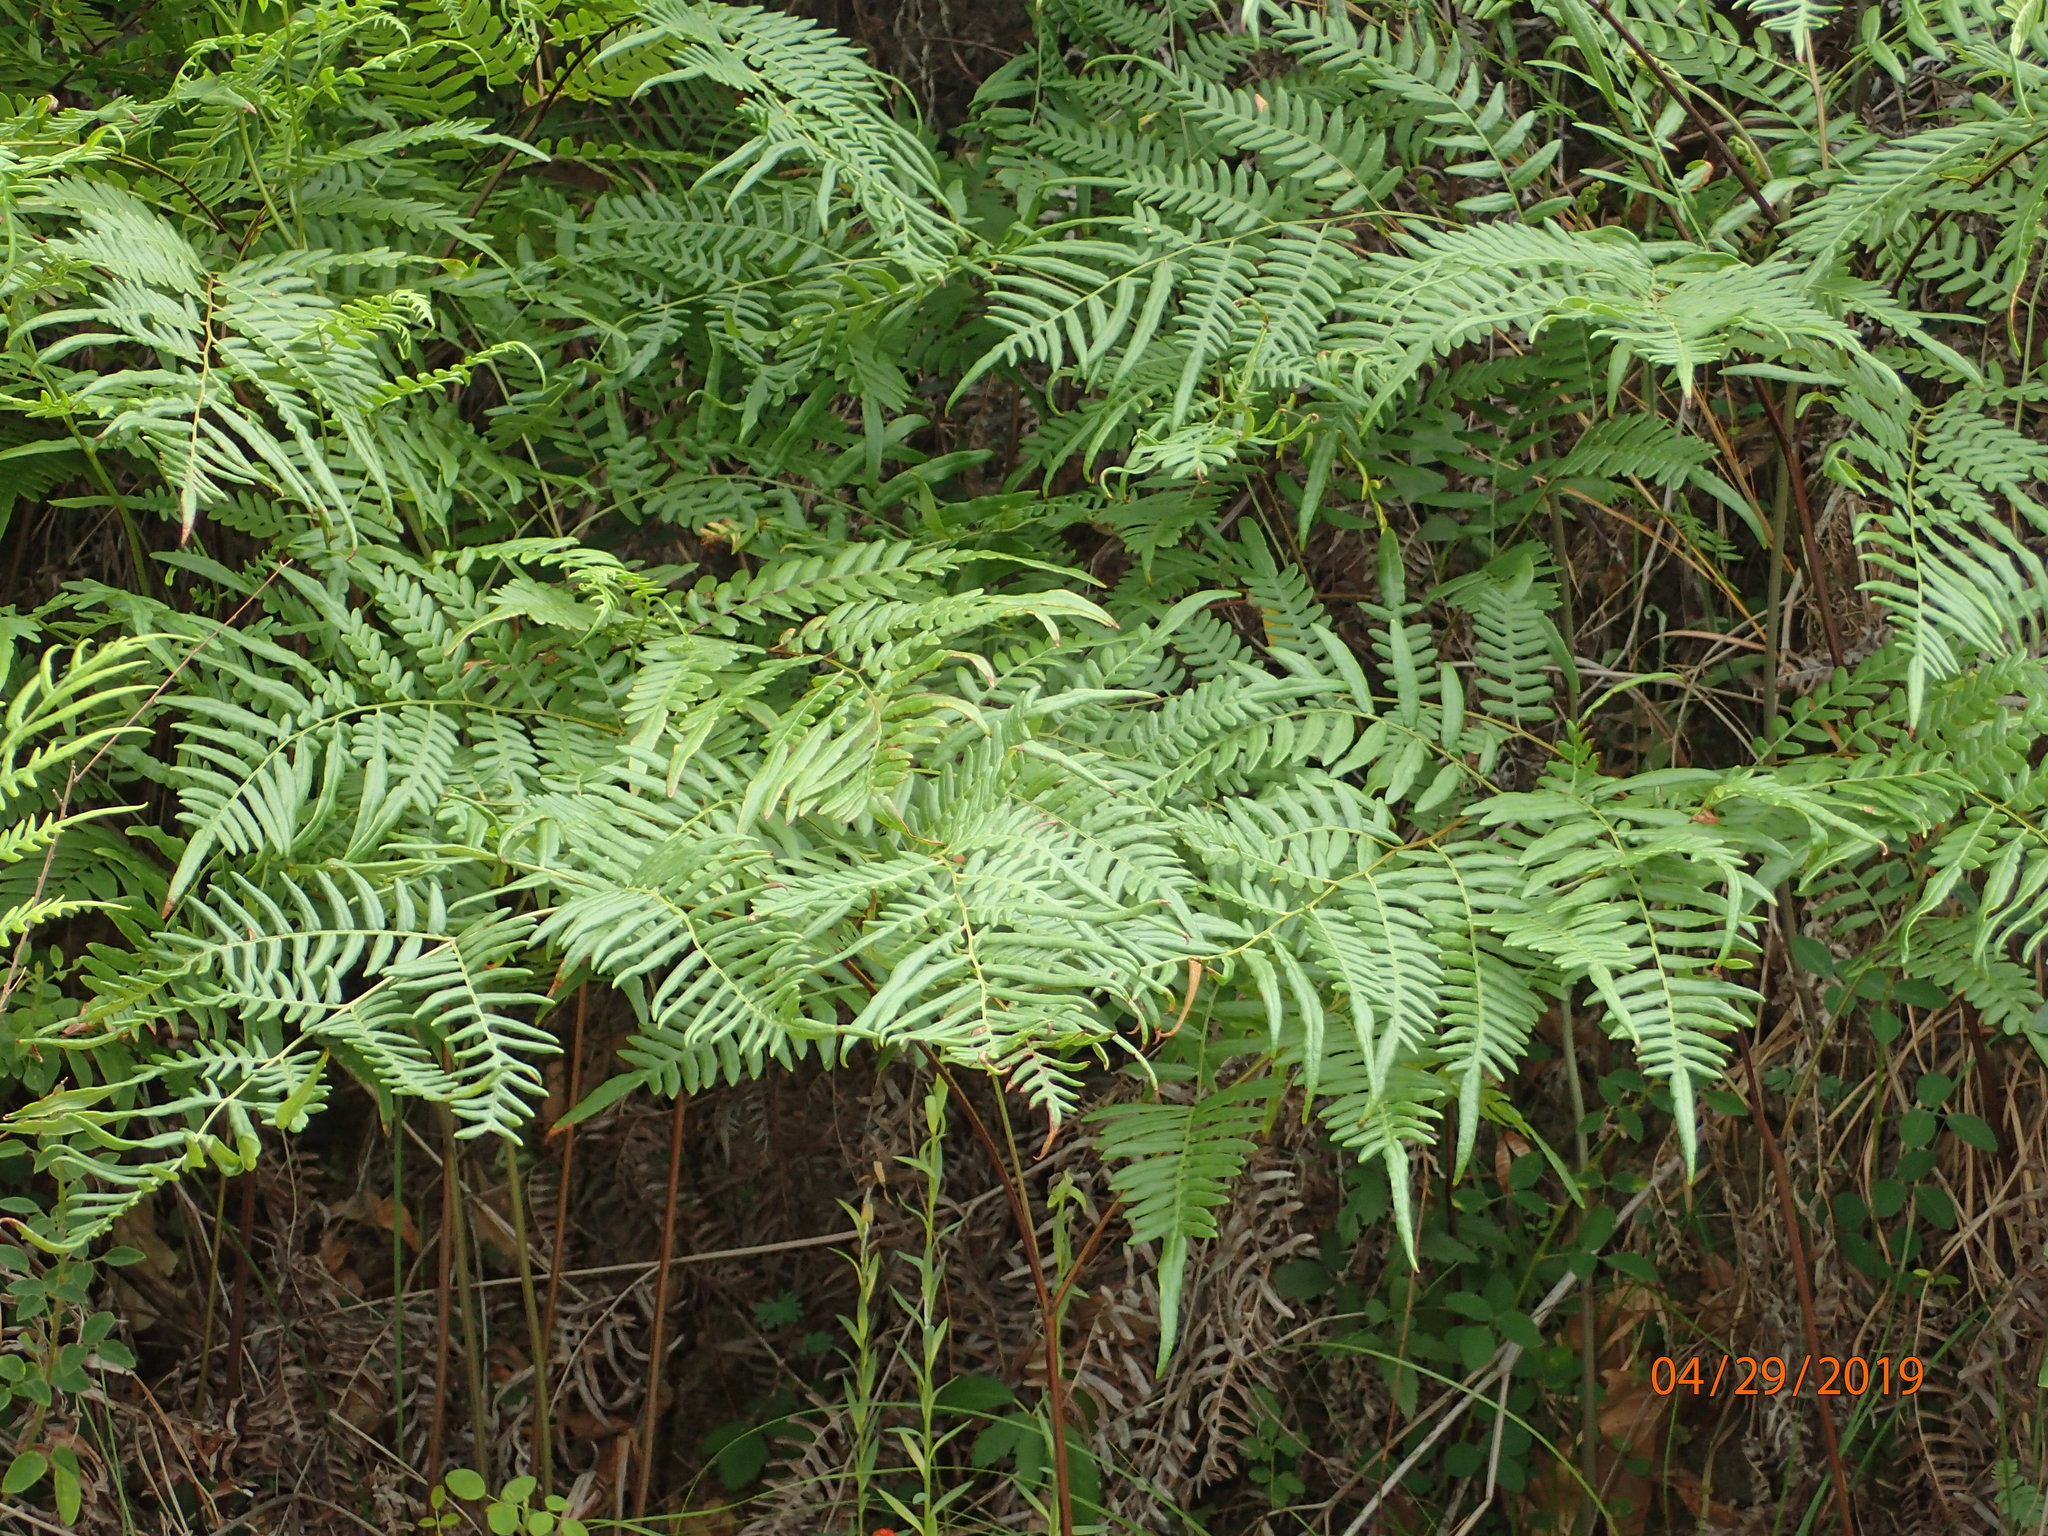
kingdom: Plantae
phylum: Tracheophyta
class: Polypodiopsida
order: Polypodiales
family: Dennstaedtiaceae
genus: Pteridium
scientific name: Pteridium
